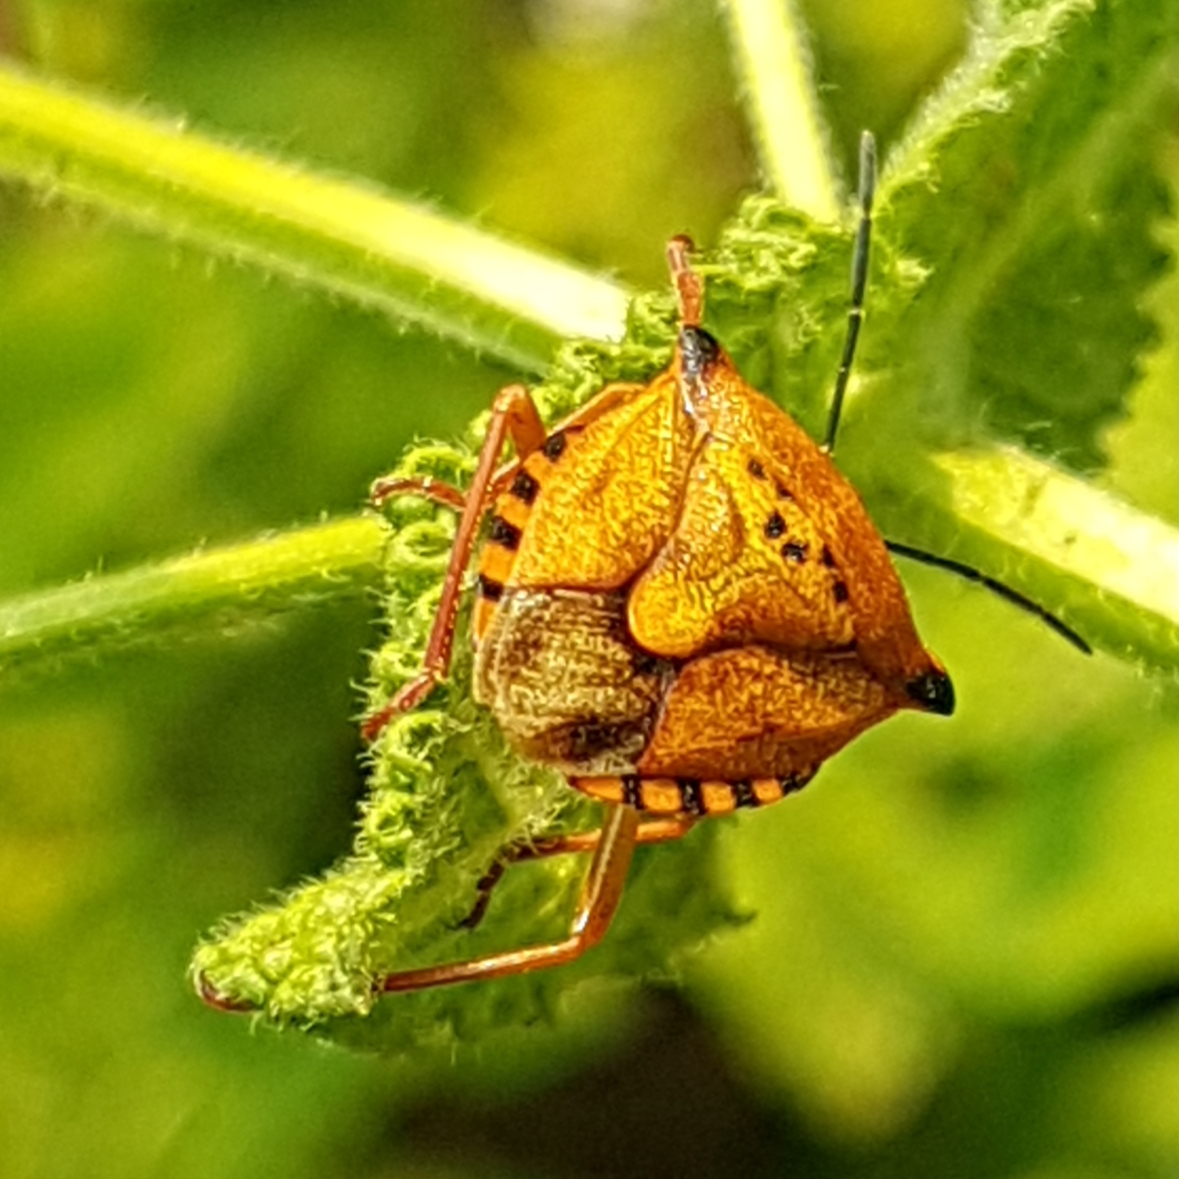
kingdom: Animalia
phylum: Arthropoda
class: Insecta
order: Hemiptera
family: Pentatomidae
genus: Carpocoris
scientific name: Carpocoris mediterraneus
